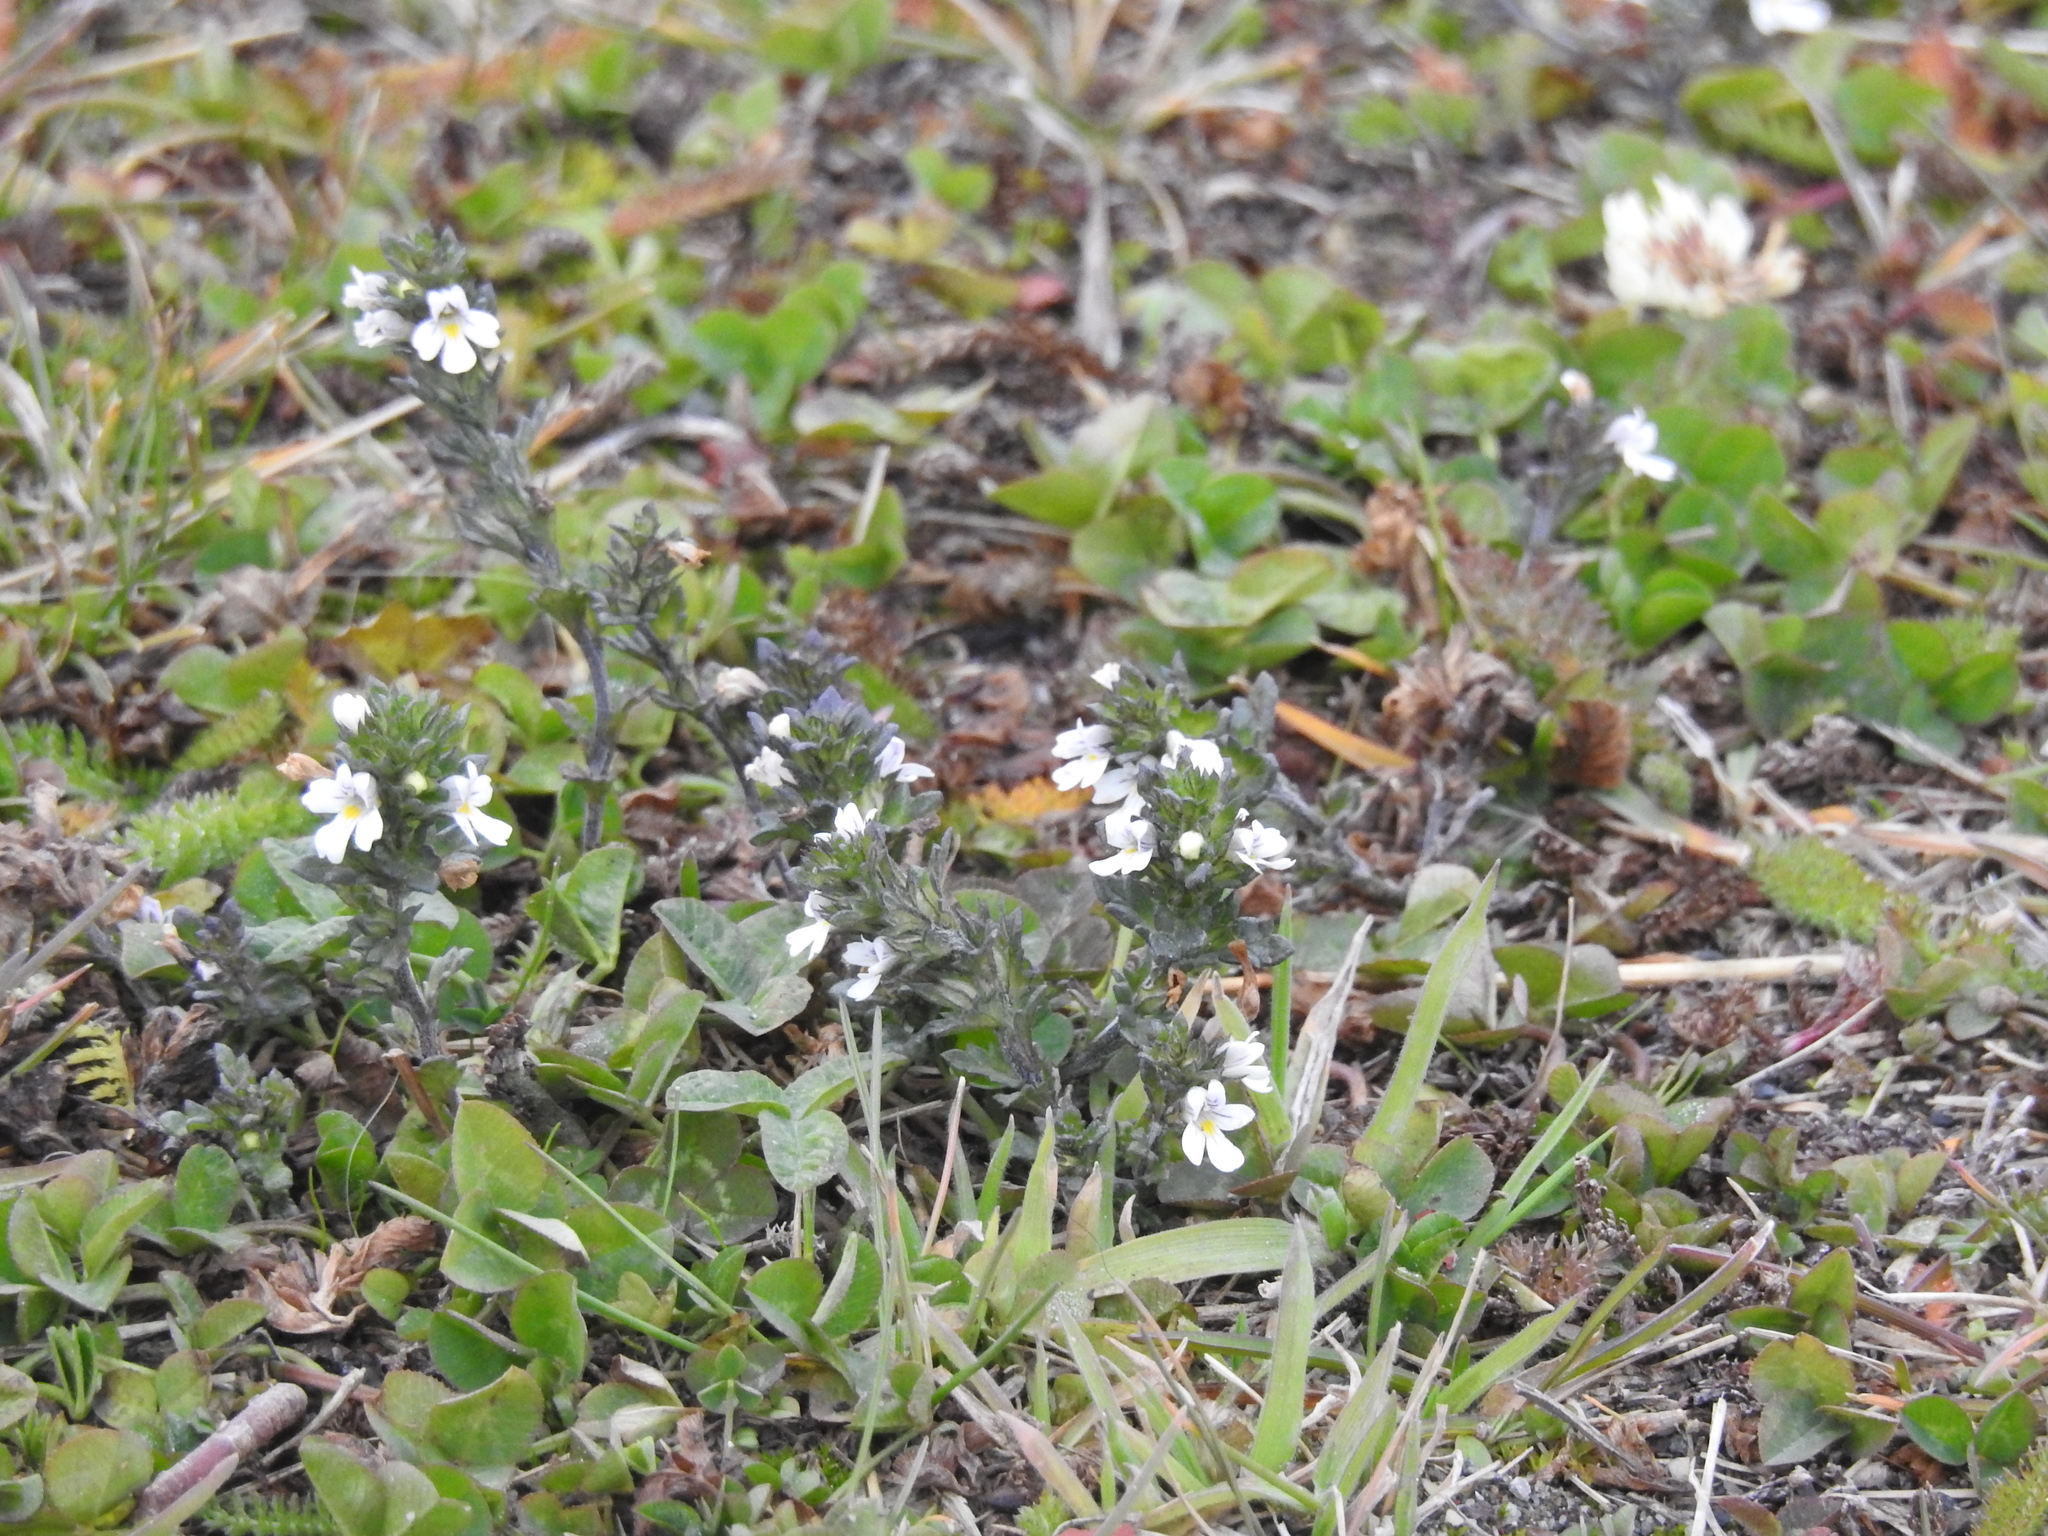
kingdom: Plantae
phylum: Tracheophyta
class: Magnoliopsida
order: Lamiales
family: Orobanchaceae
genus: Euphrasia
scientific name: Euphrasia officinalis
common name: Eyebright
